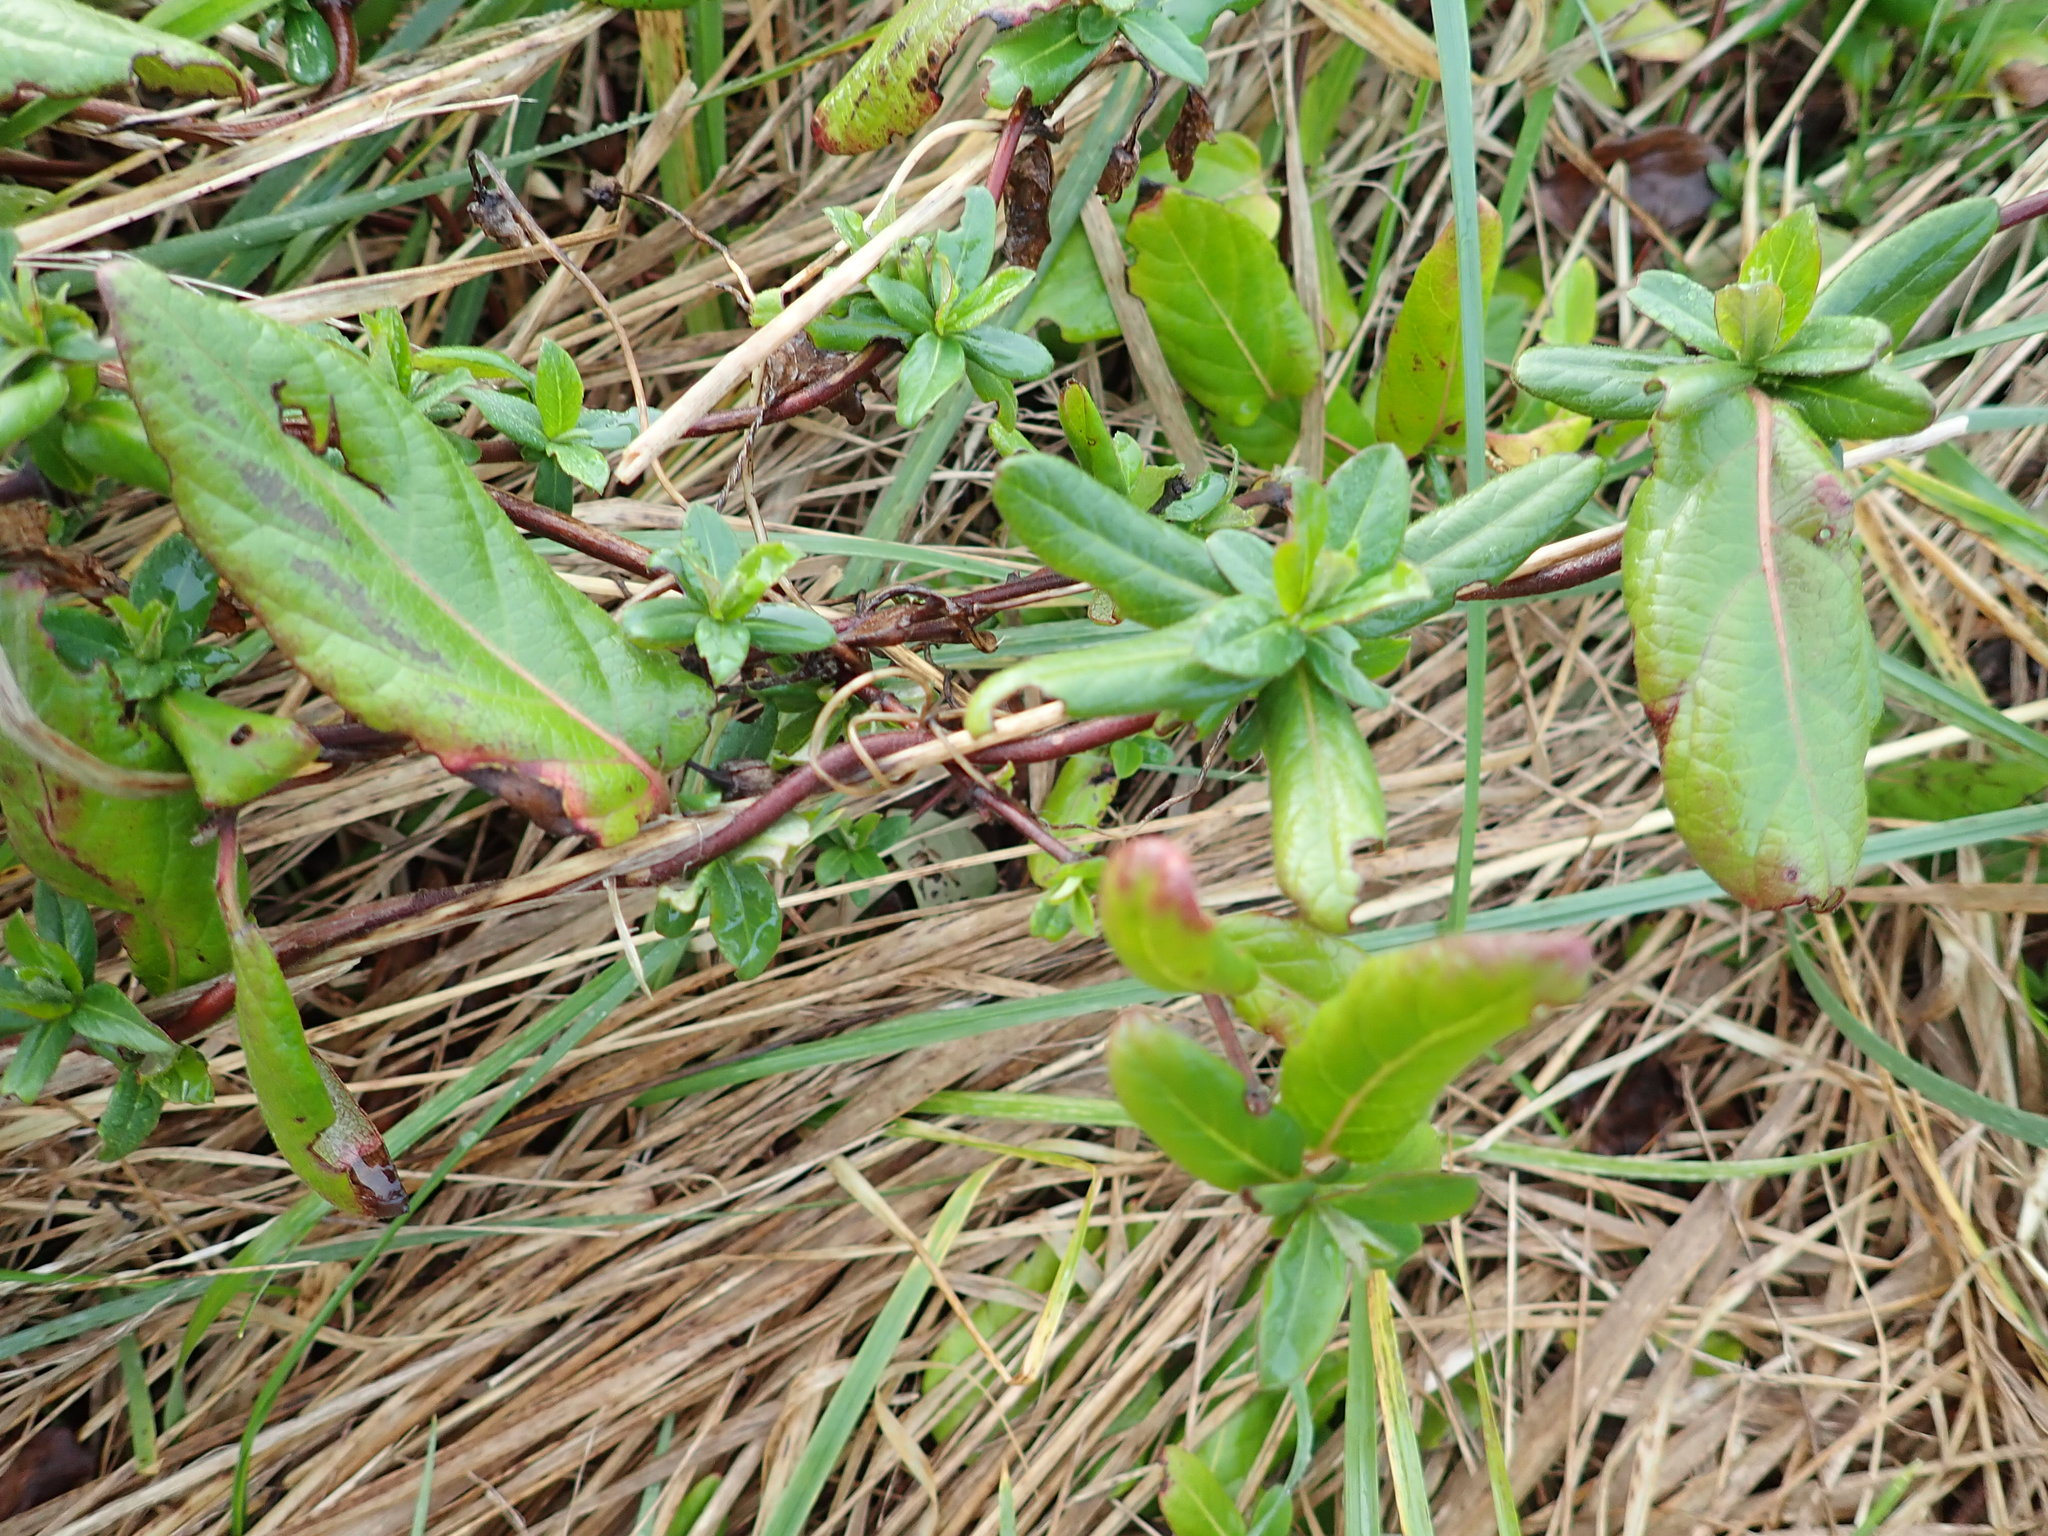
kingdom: Plantae
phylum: Tracheophyta
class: Magnoliopsida
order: Dipsacales
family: Caprifoliaceae
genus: Lonicera
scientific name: Lonicera japonica
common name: Japanese honeysuckle
